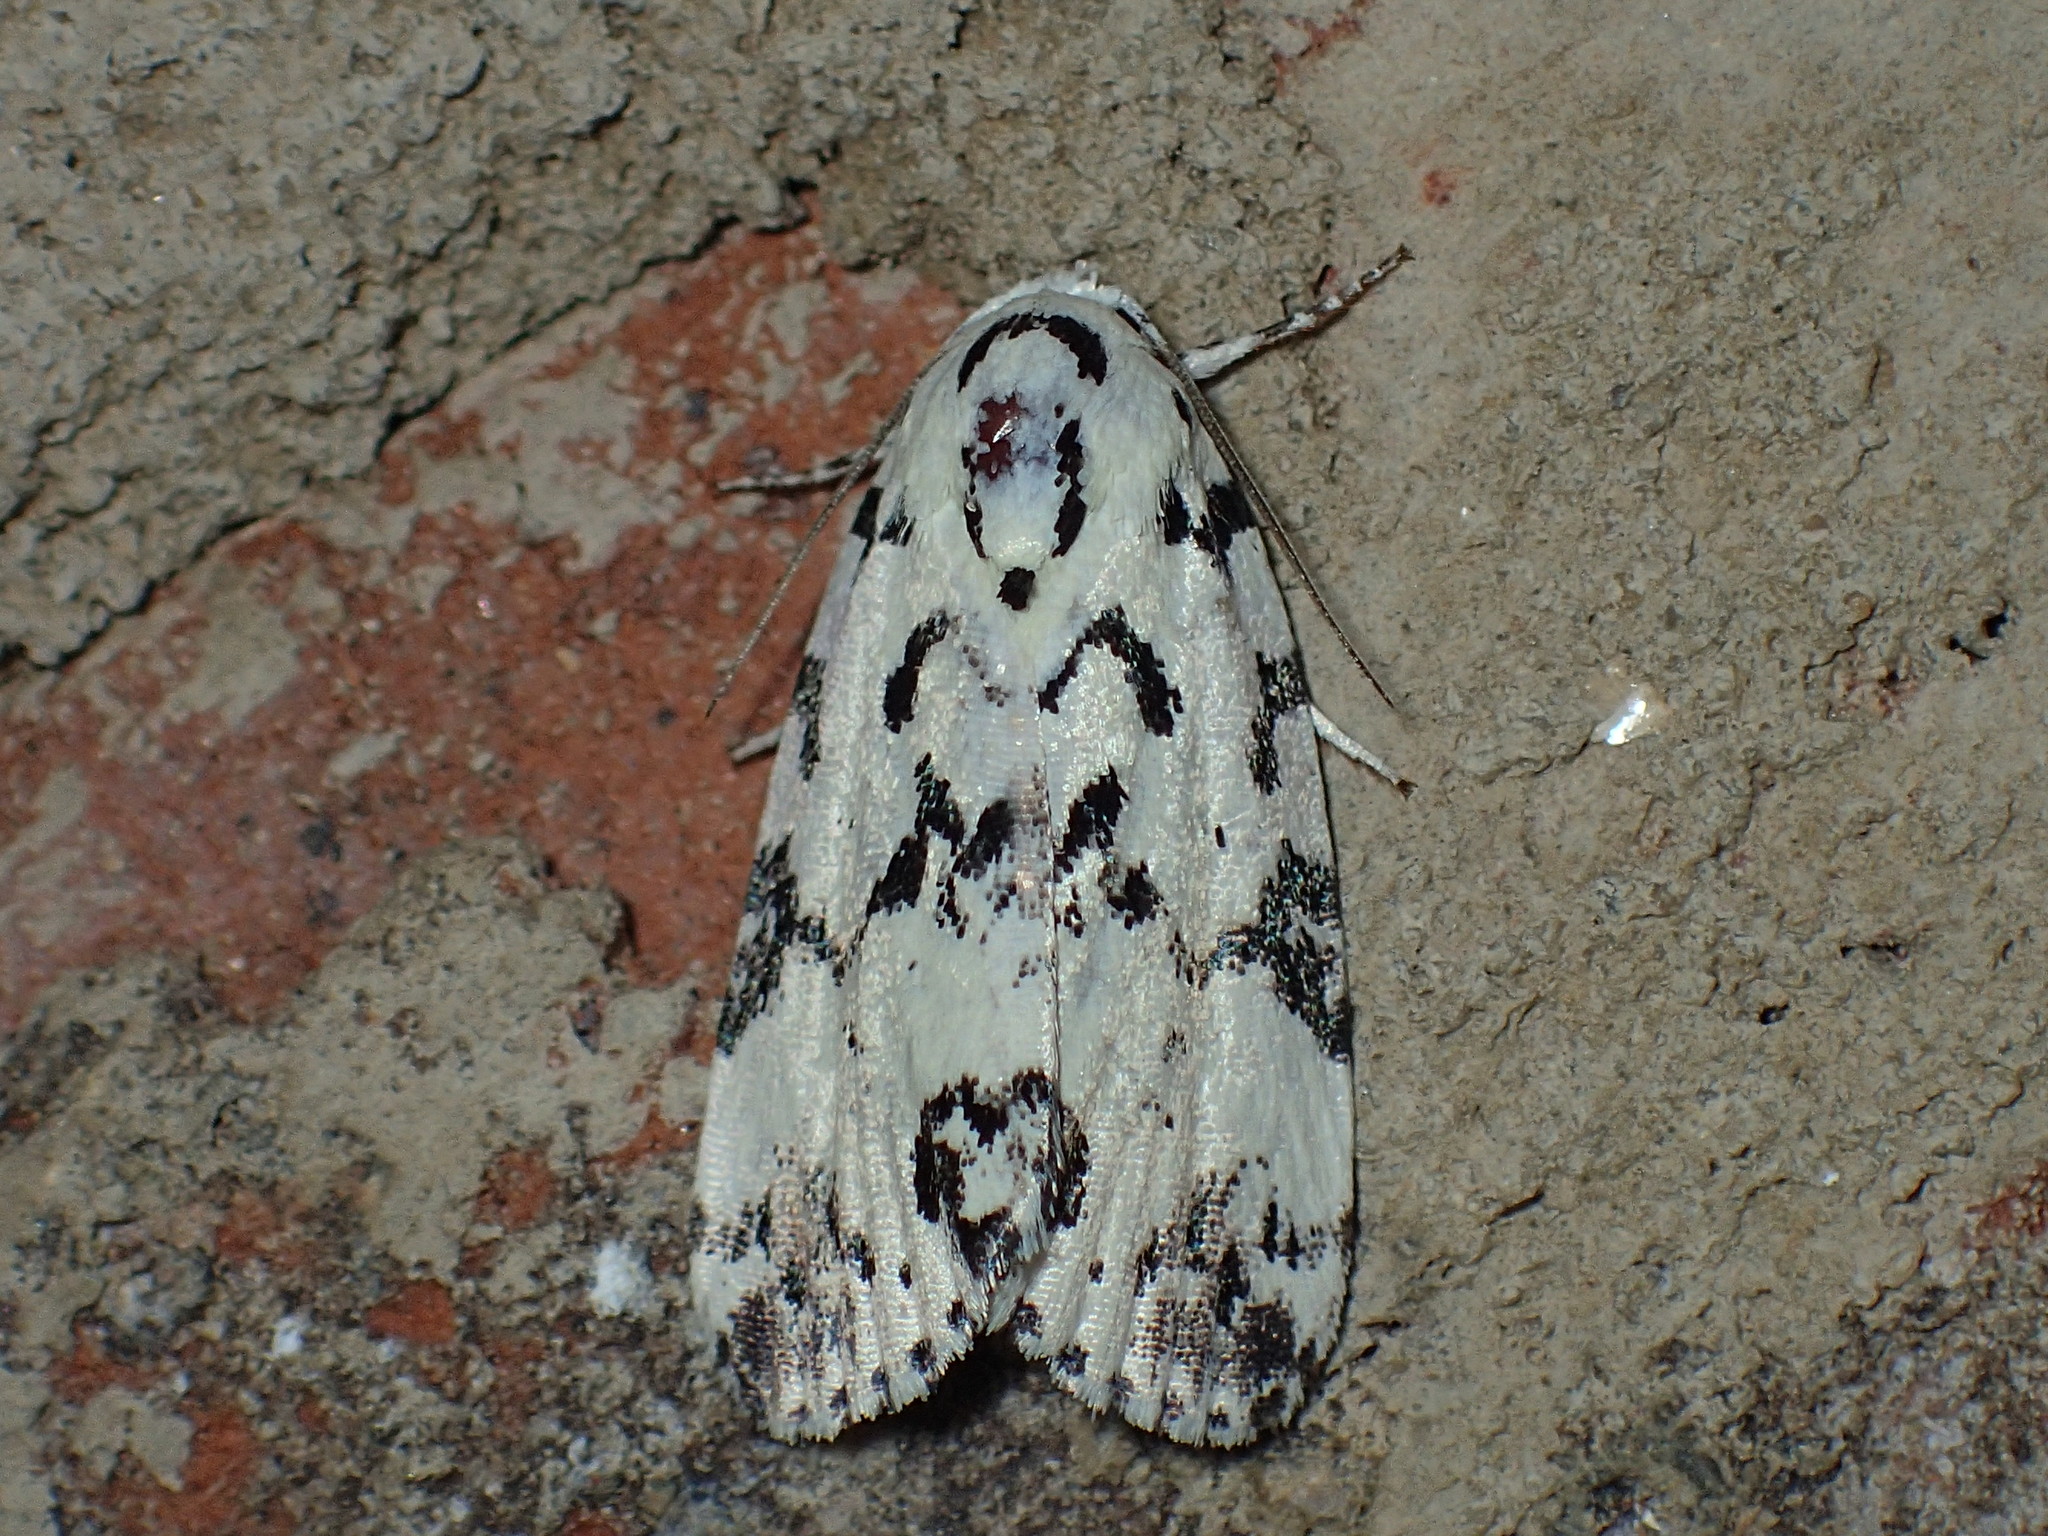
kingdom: Animalia
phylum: Arthropoda
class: Insecta
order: Lepidoptera
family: Noctuidae
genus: Polygrammate
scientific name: Polygrammate hebraeicum
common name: Hebrew moth
